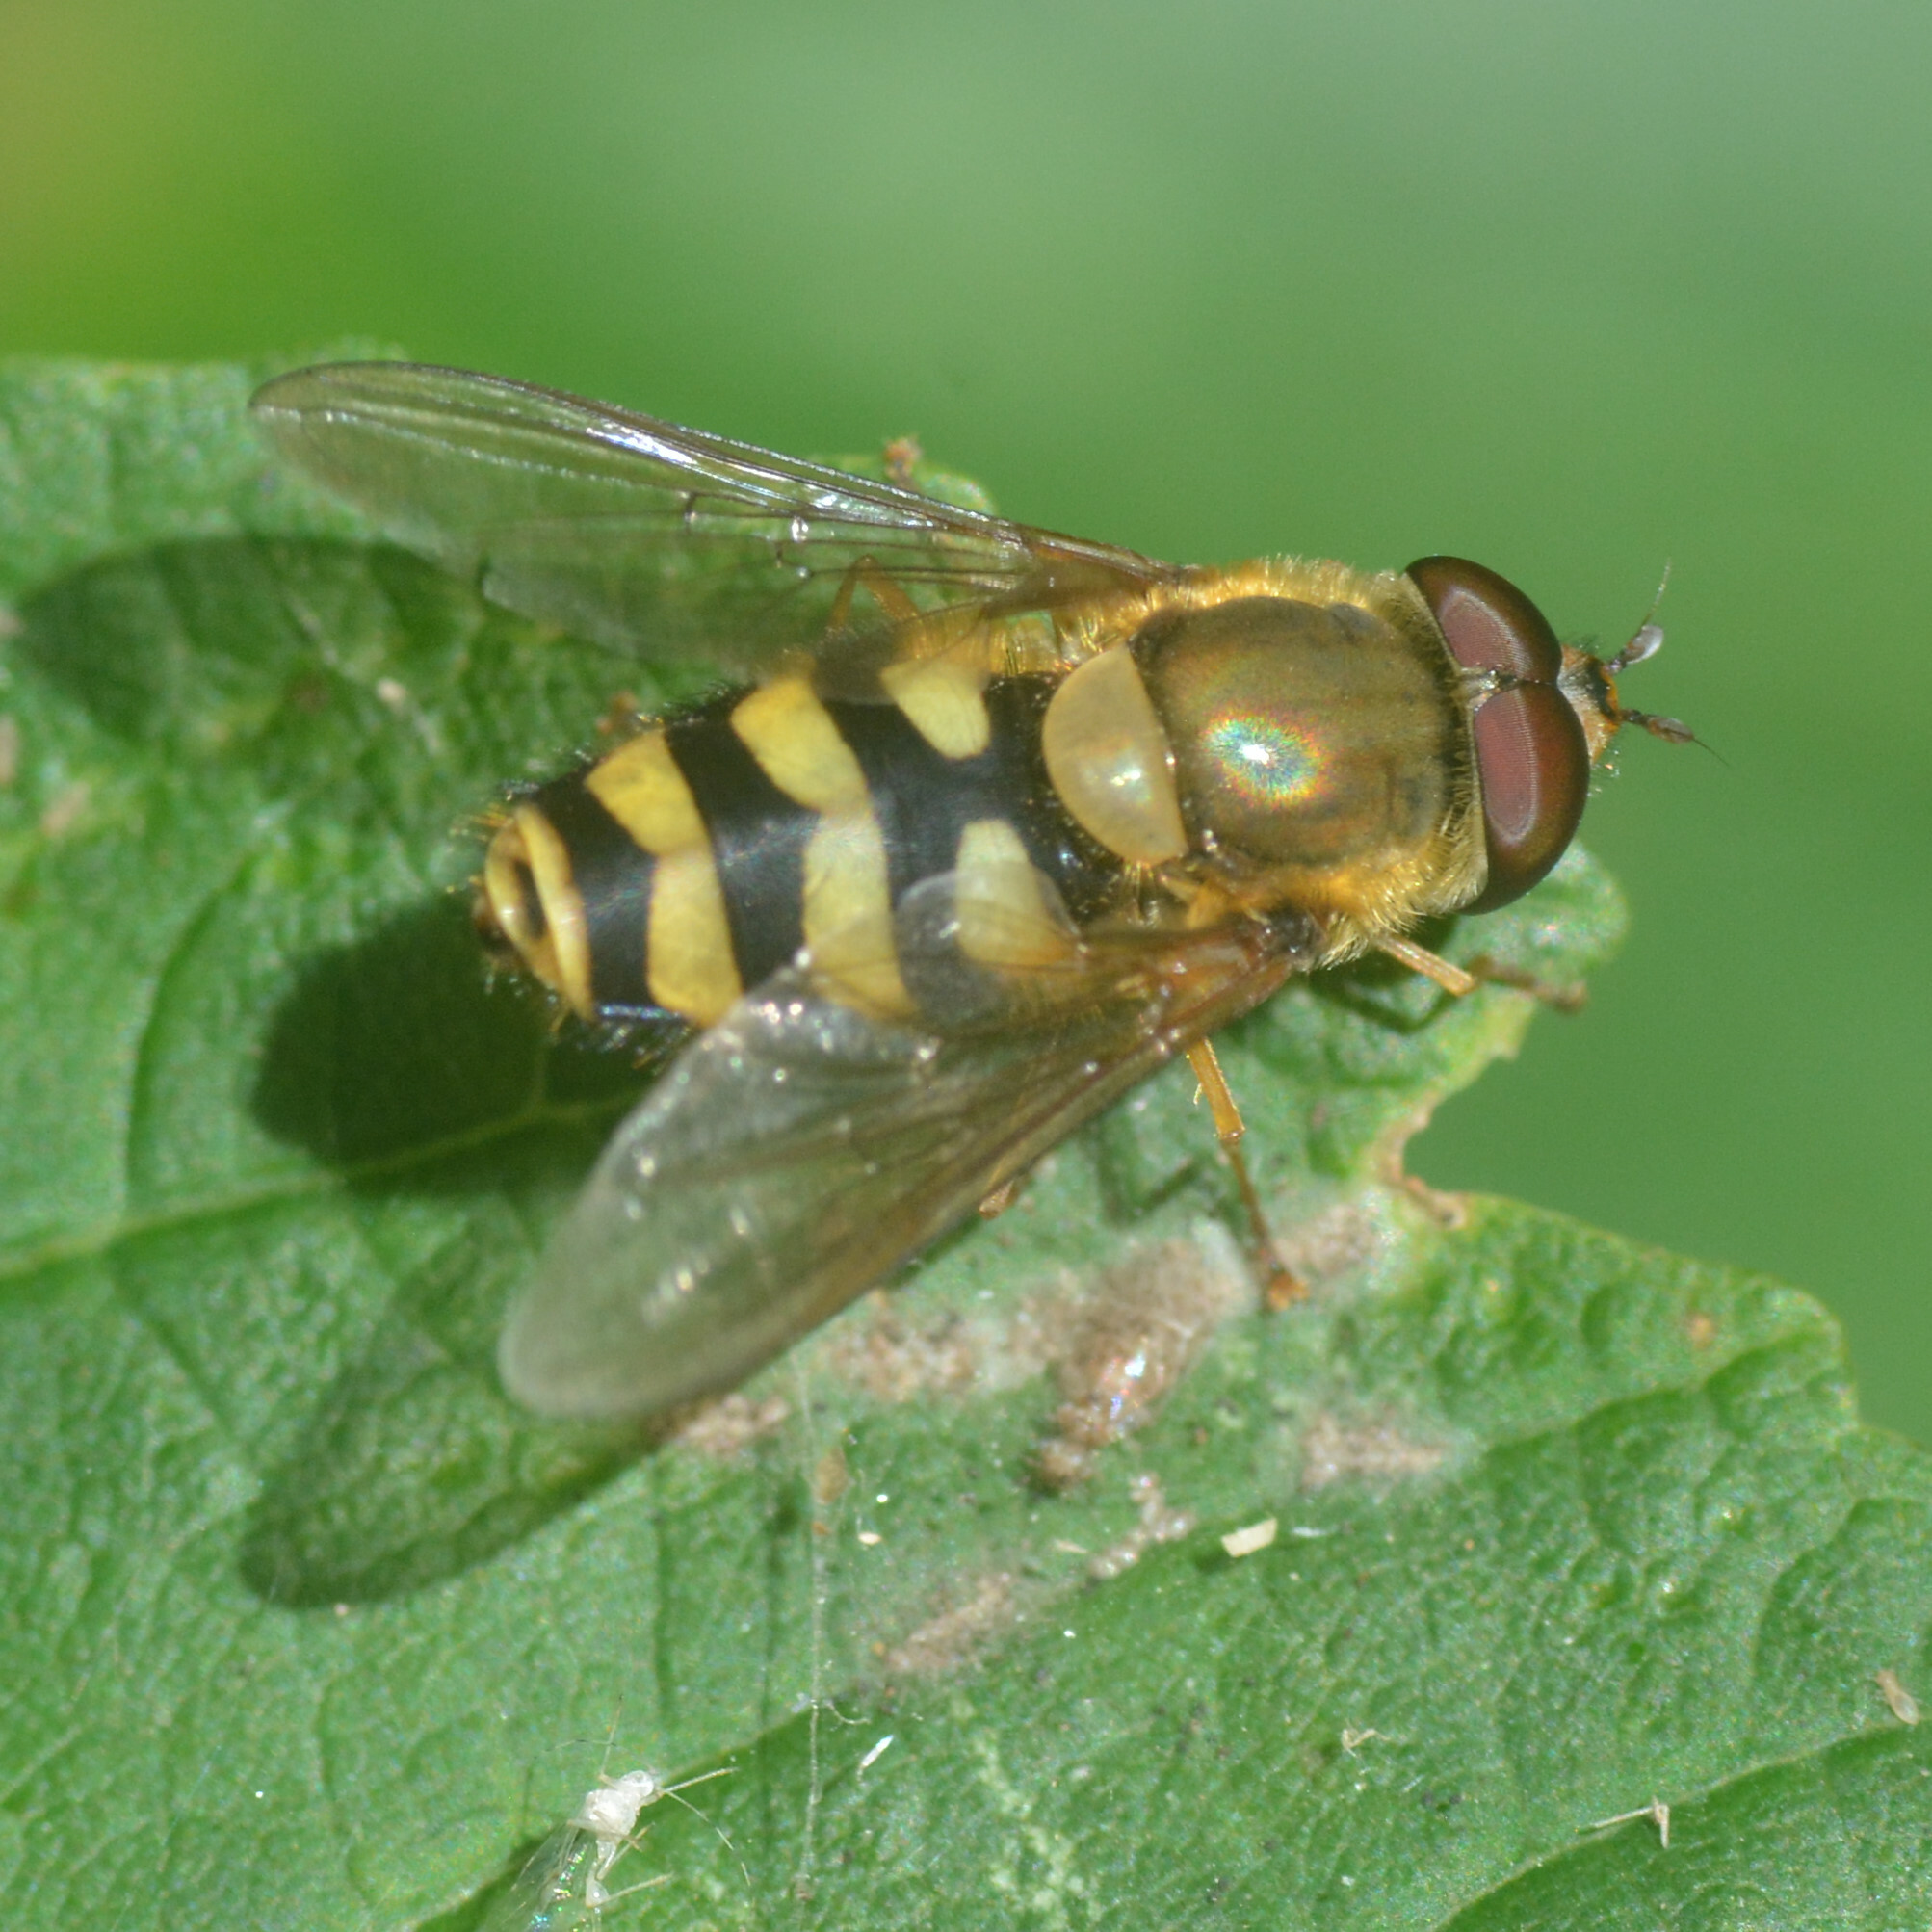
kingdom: Animalia
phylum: Arthropoda
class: Insecta
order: Diptera
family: Syrphidae
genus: Syrphus
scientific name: Syrphus
